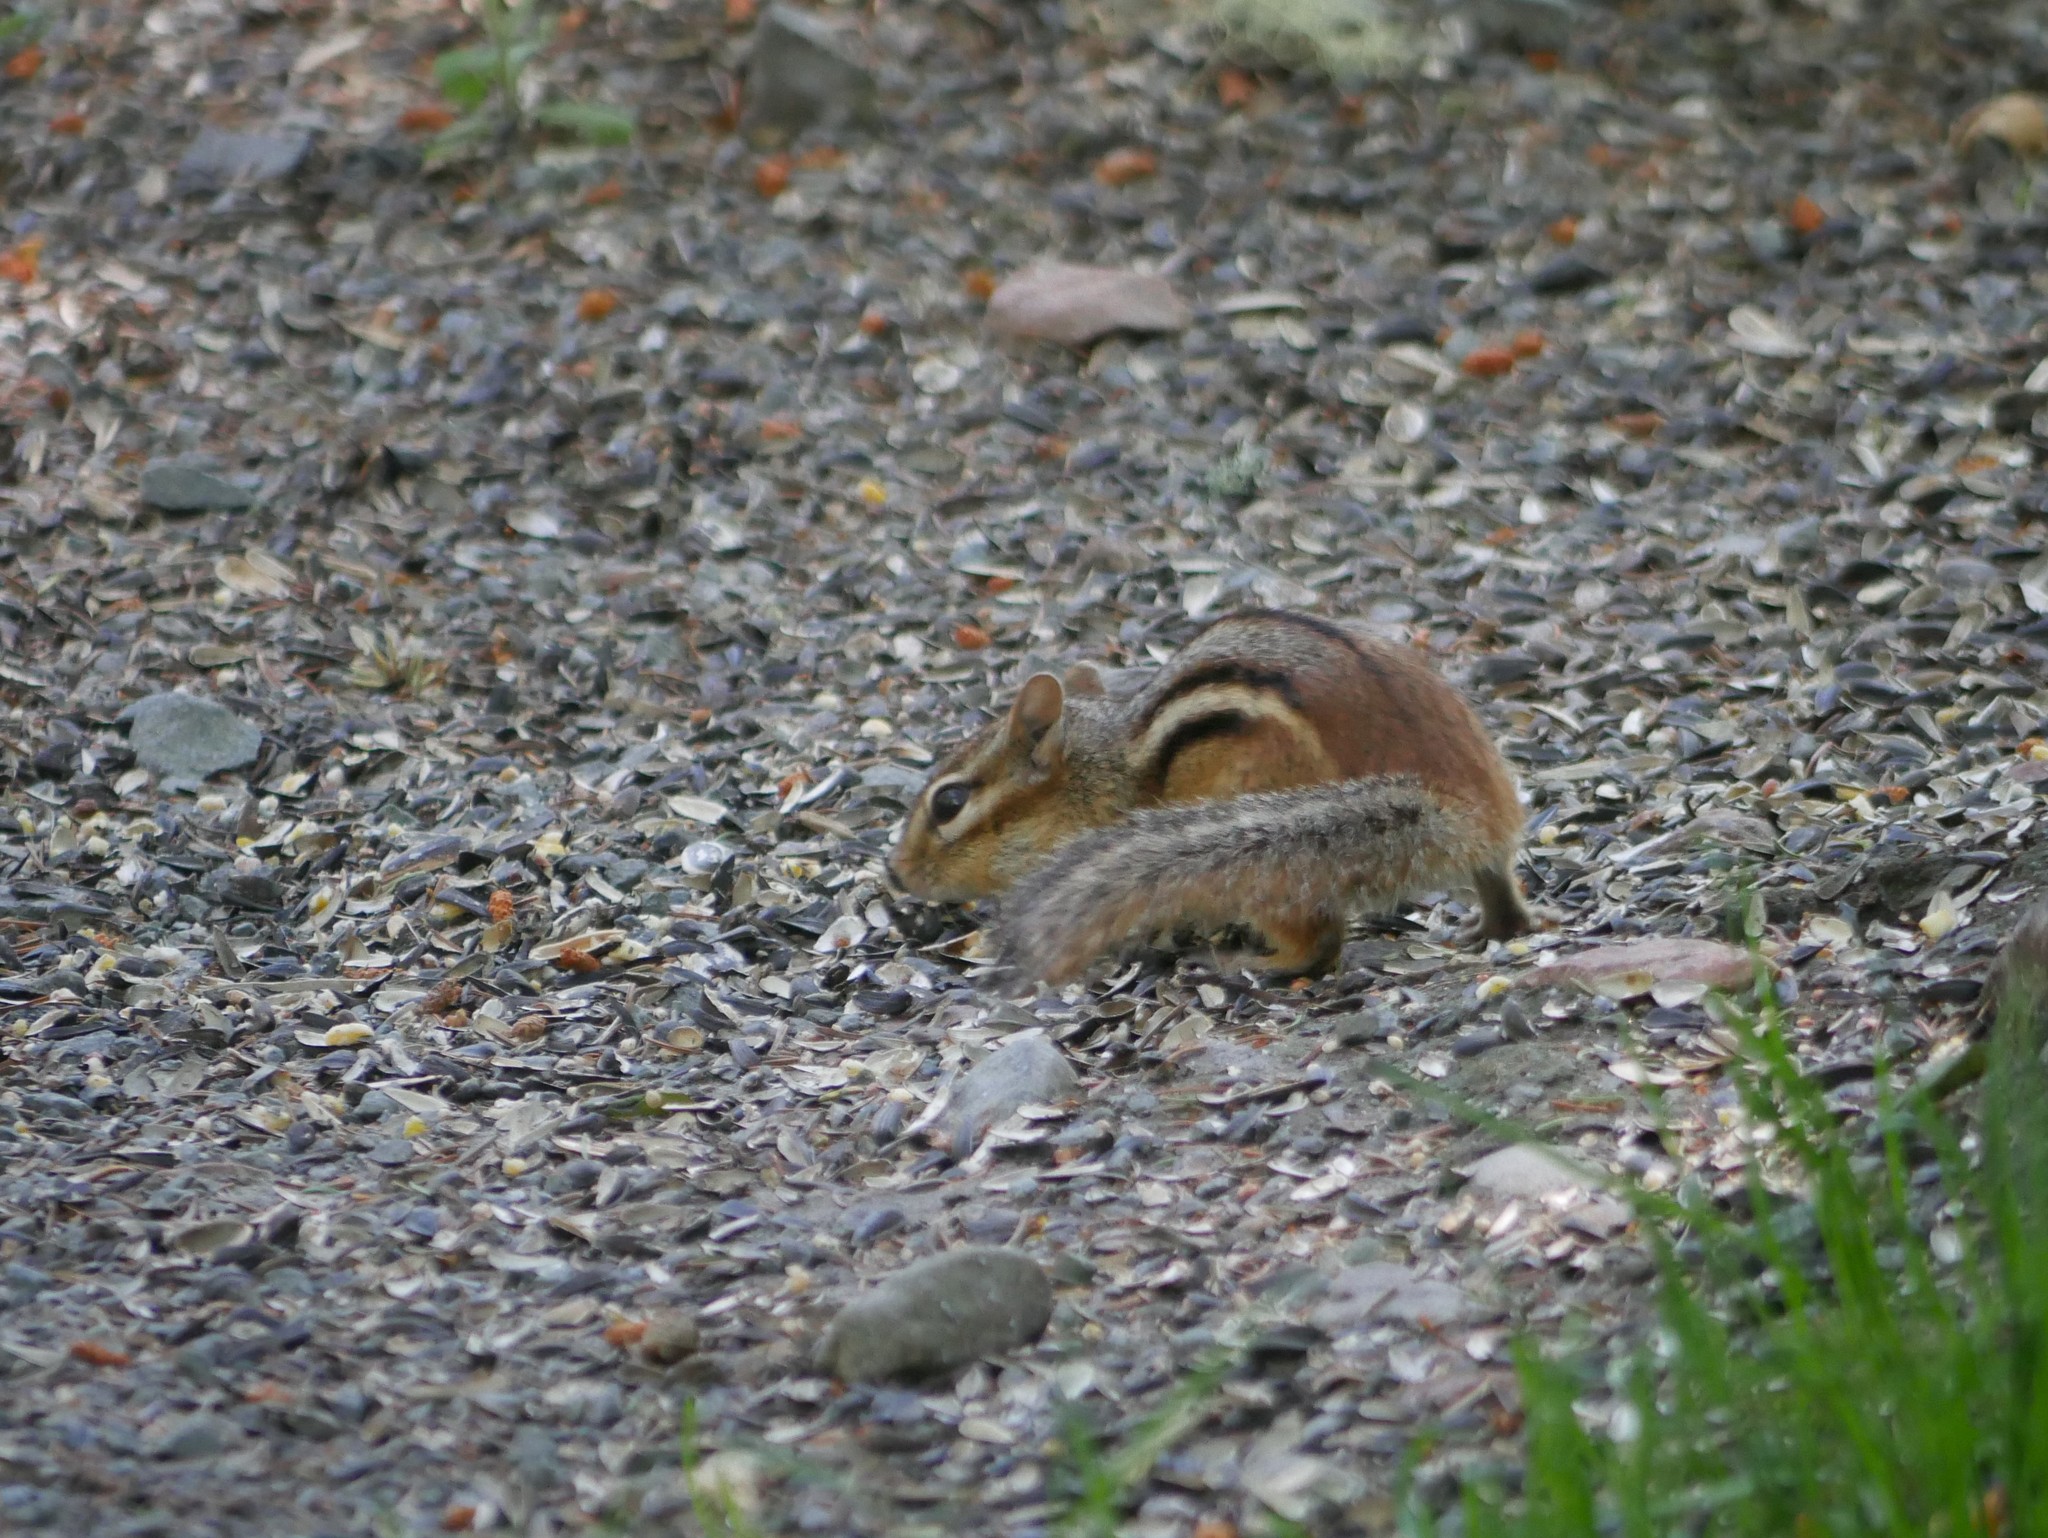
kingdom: Animalia
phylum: Chordata
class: Mammalia
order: Rodentia
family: Sciuridae
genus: Tamias
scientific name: Tamias striatus
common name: Eastern chipmunk
